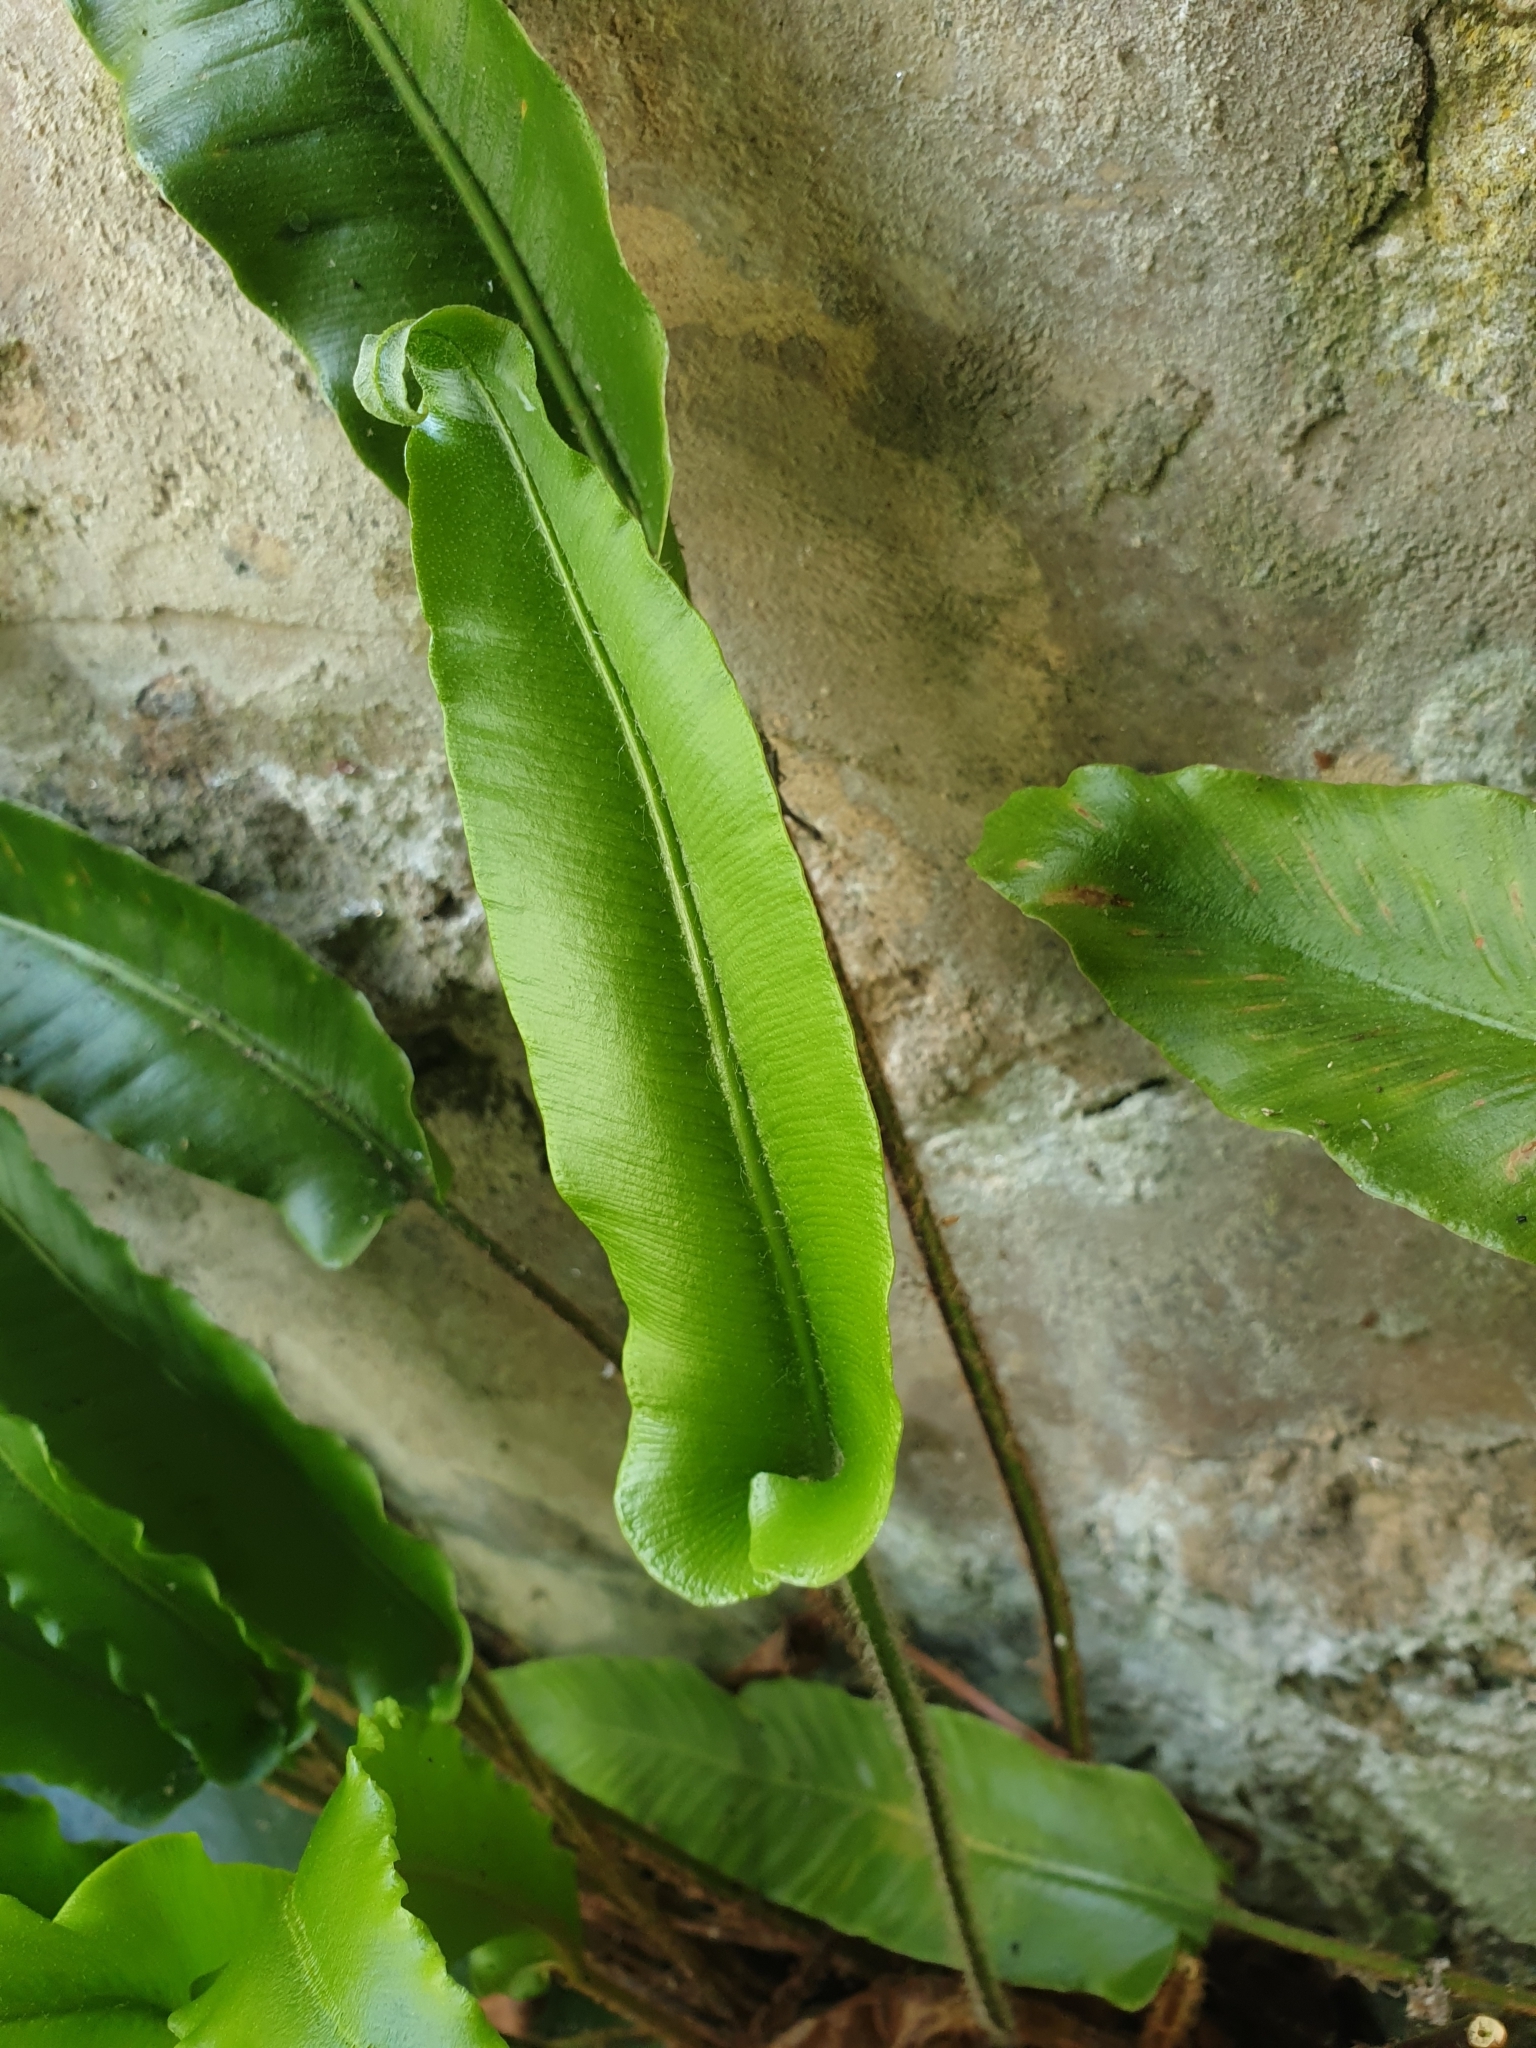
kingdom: Plantae
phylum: Tracheophyta
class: Polypodiopsida
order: Polypodiales
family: Aspleniaceae
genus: Asplenium
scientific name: Asplenium scolopendrium
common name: Hart's-tongue fern
